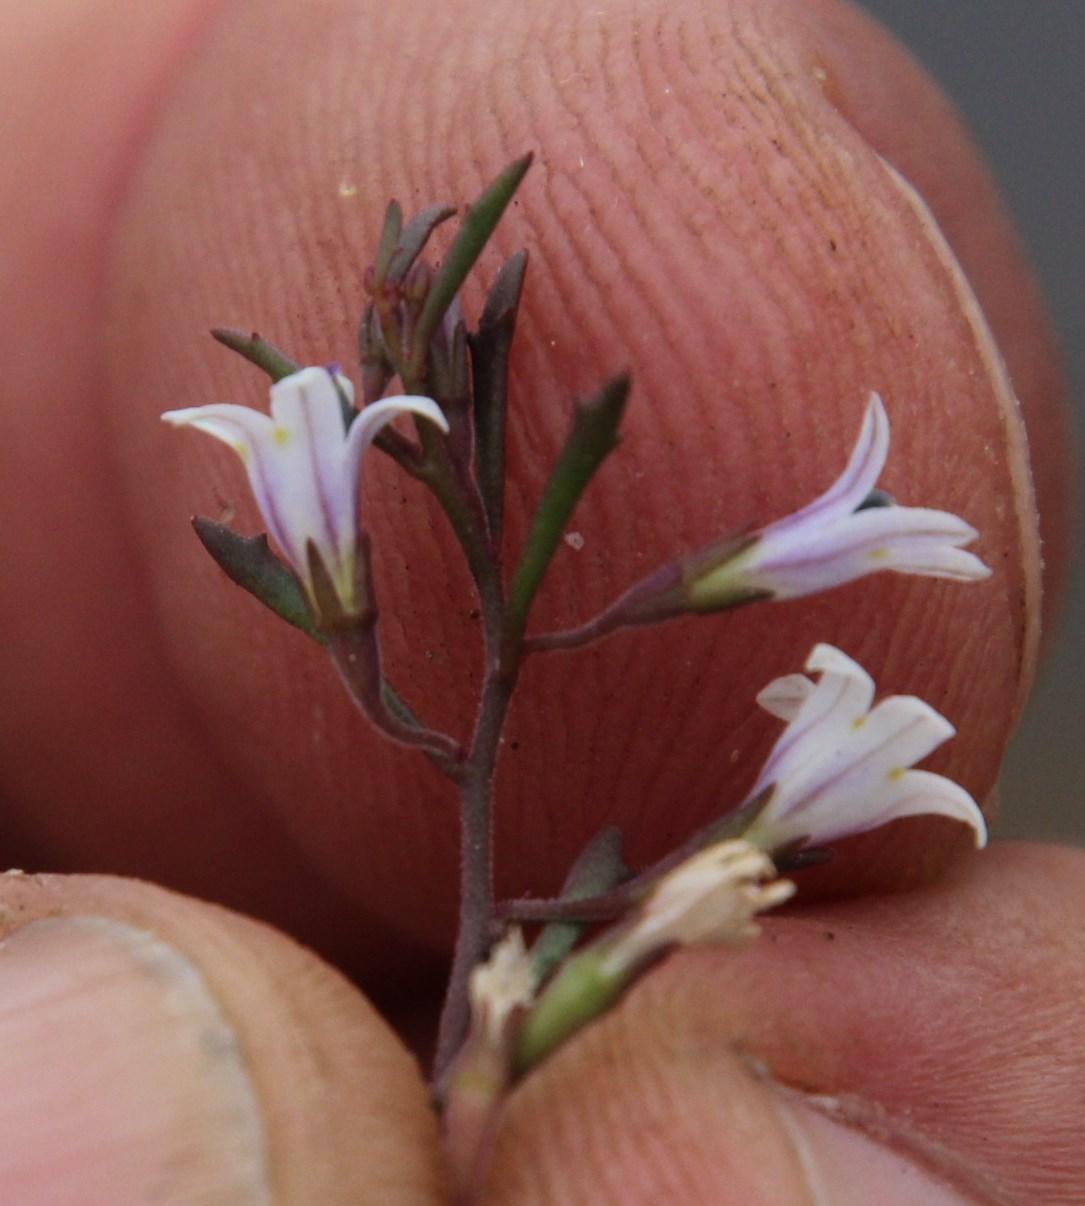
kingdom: Plantae
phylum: Tracheophyta
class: Magnoliopsida
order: Asterales
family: Campanulaceae
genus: Wimmerella
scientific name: Wimmerella secunda
